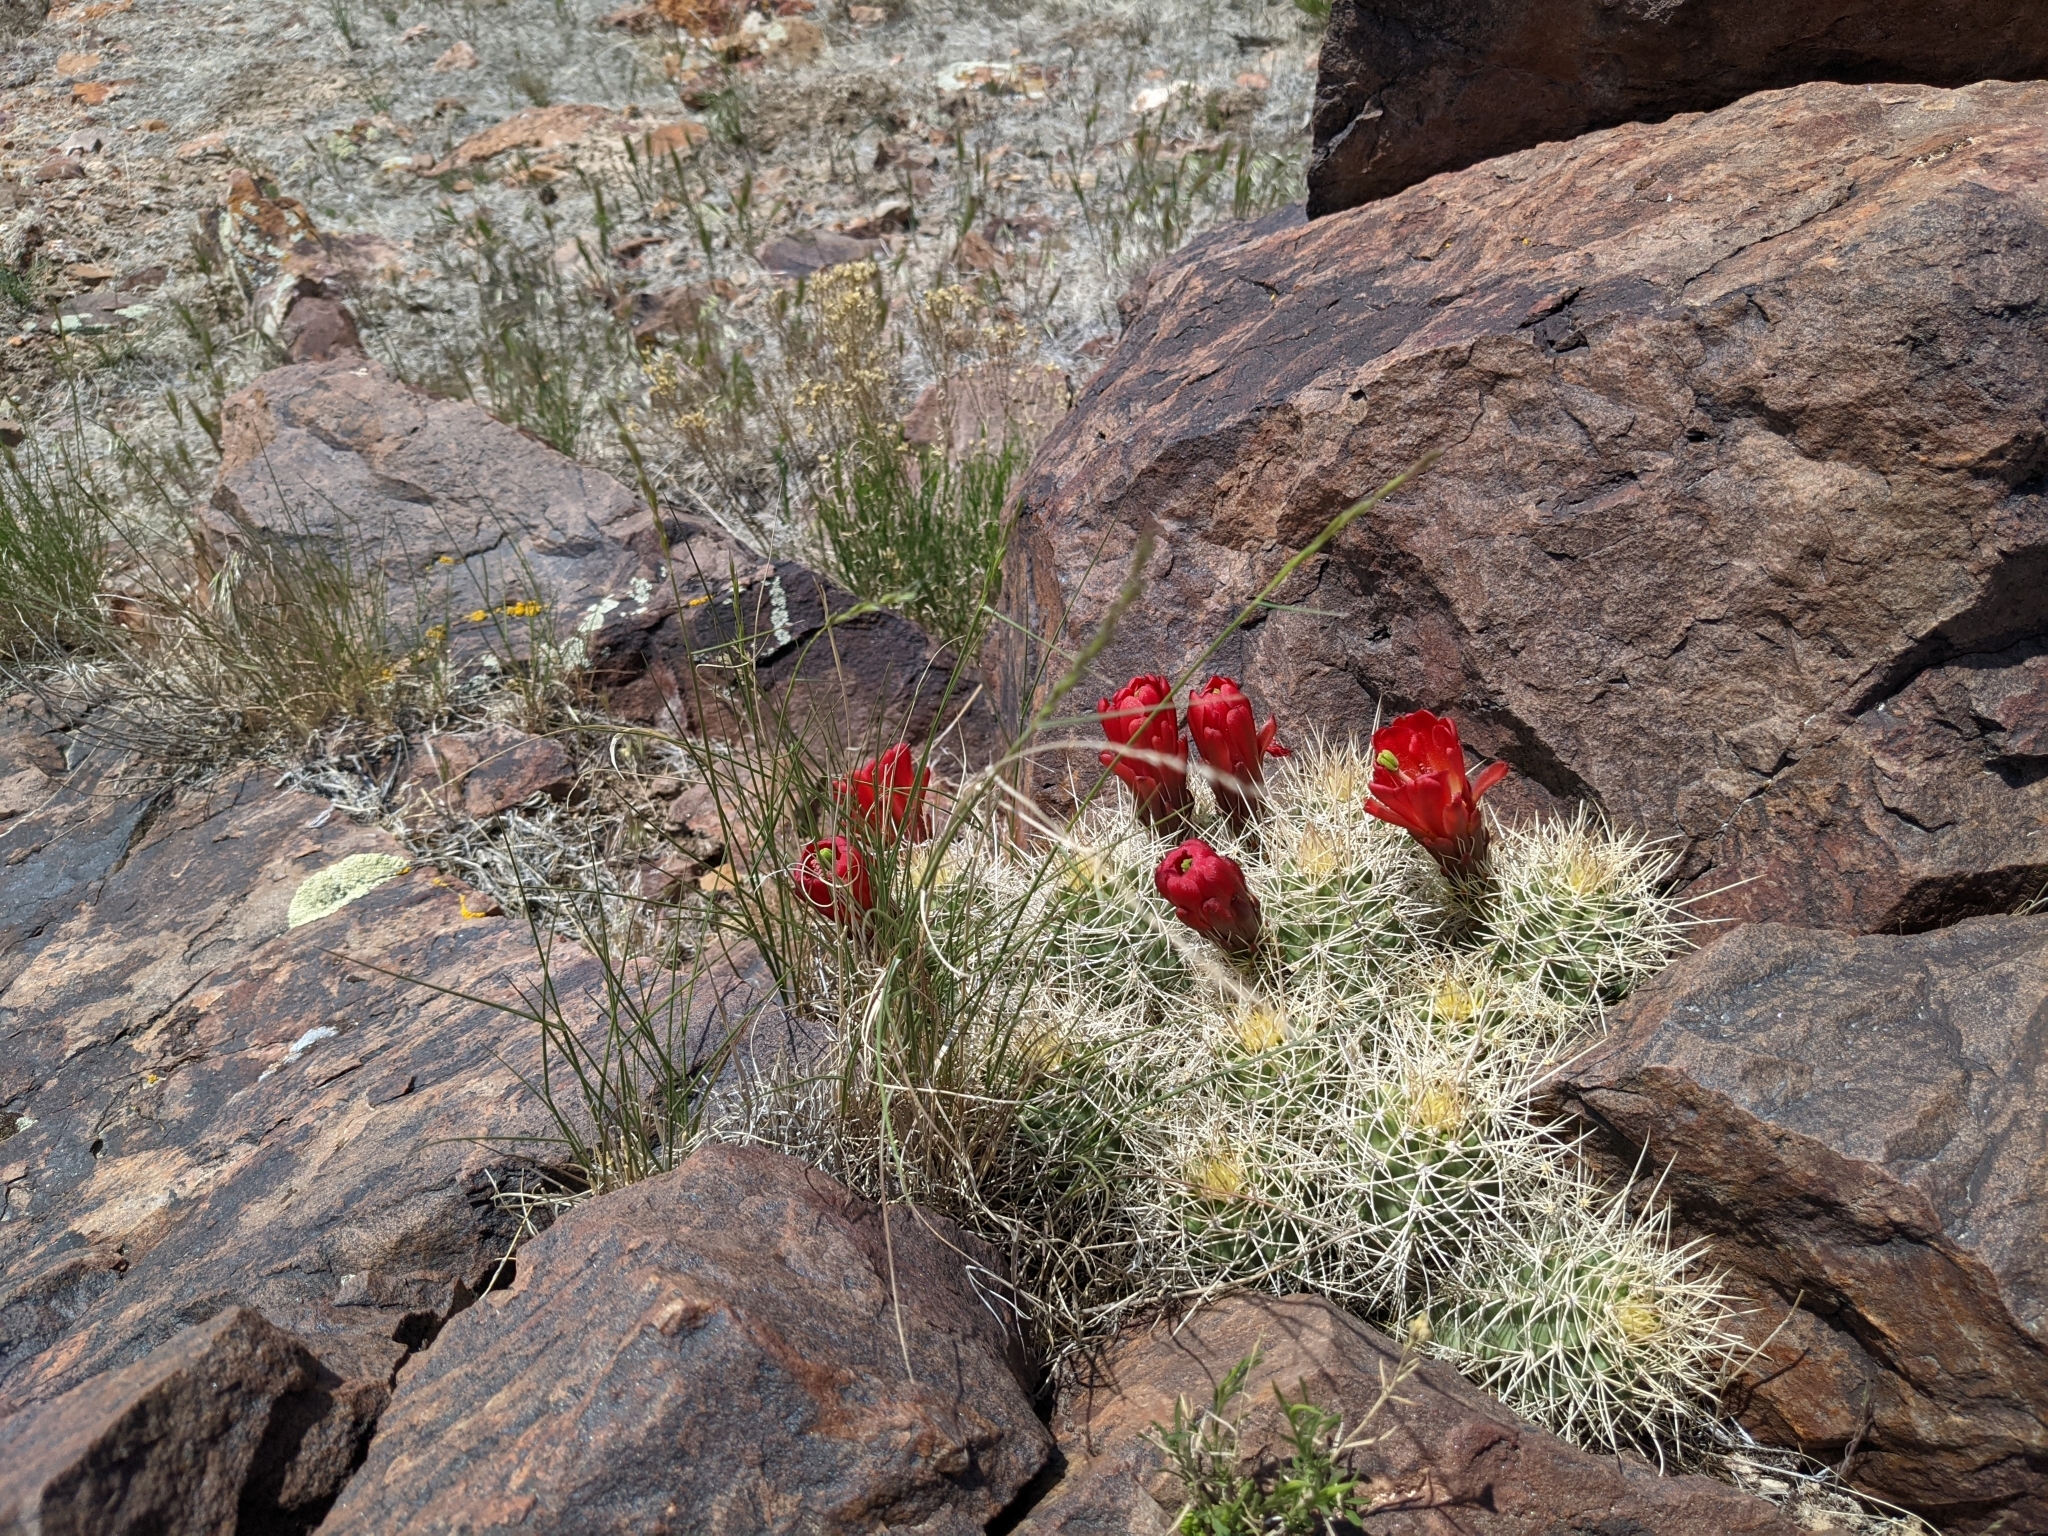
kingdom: Plantae
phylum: Tracheophyta
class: Magnoliopsida
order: Caryophyllales
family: Cactaceae
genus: Echinocereus
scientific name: Echinocereus triglochidiatus
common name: Claretcup hedgehog
